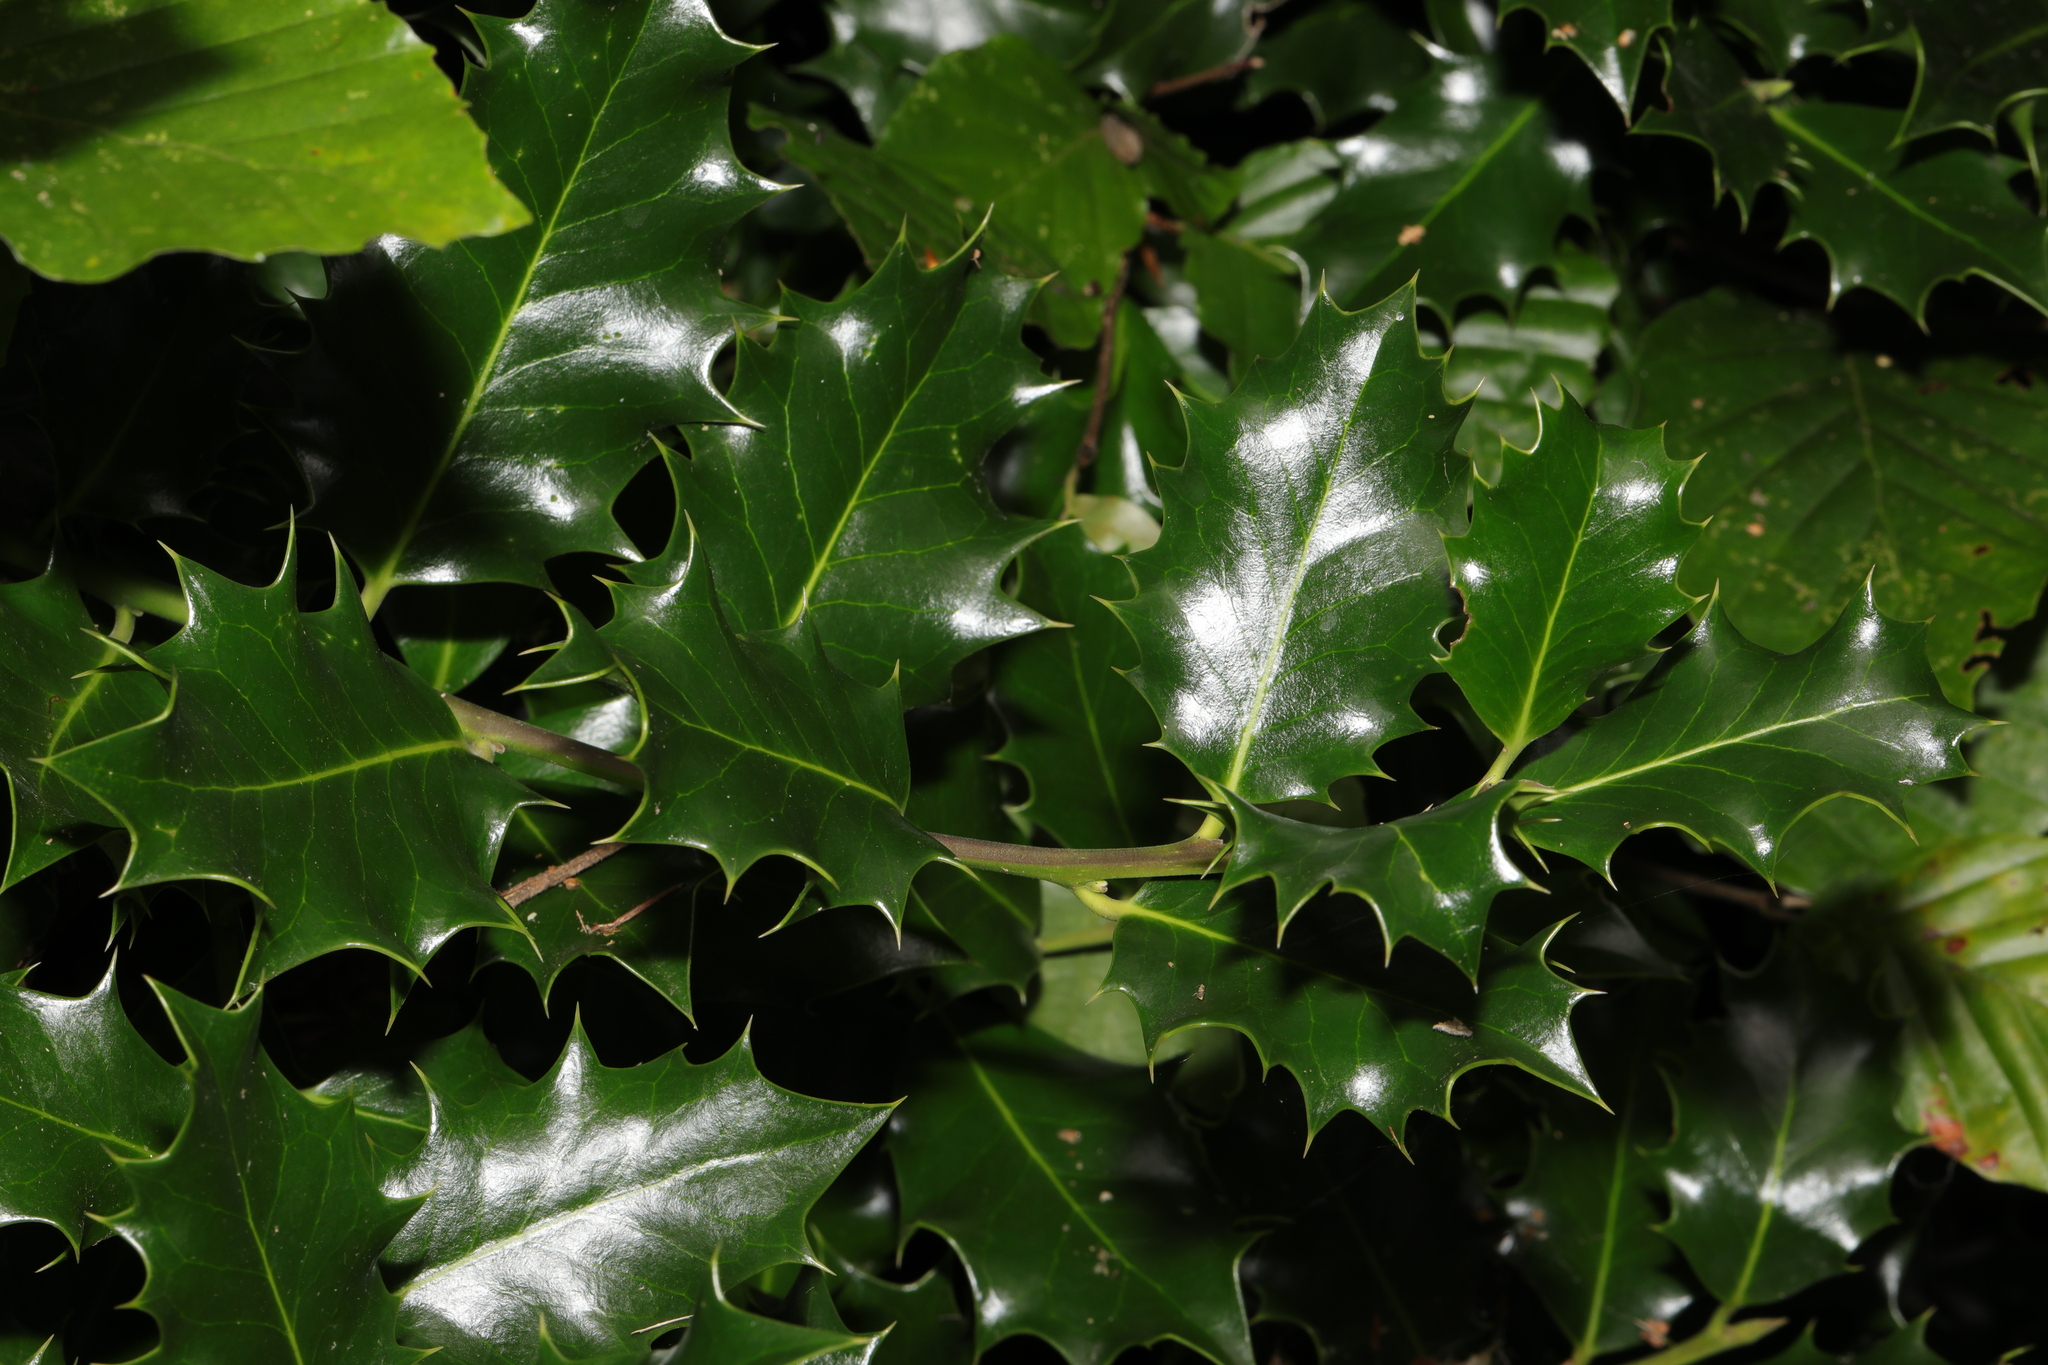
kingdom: Plantae
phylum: Tracheophyta
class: Magnoliopsida
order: Aquifoliales
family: Aquifoliaceae
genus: Ilex
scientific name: Ilex aquifolium
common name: English holly
